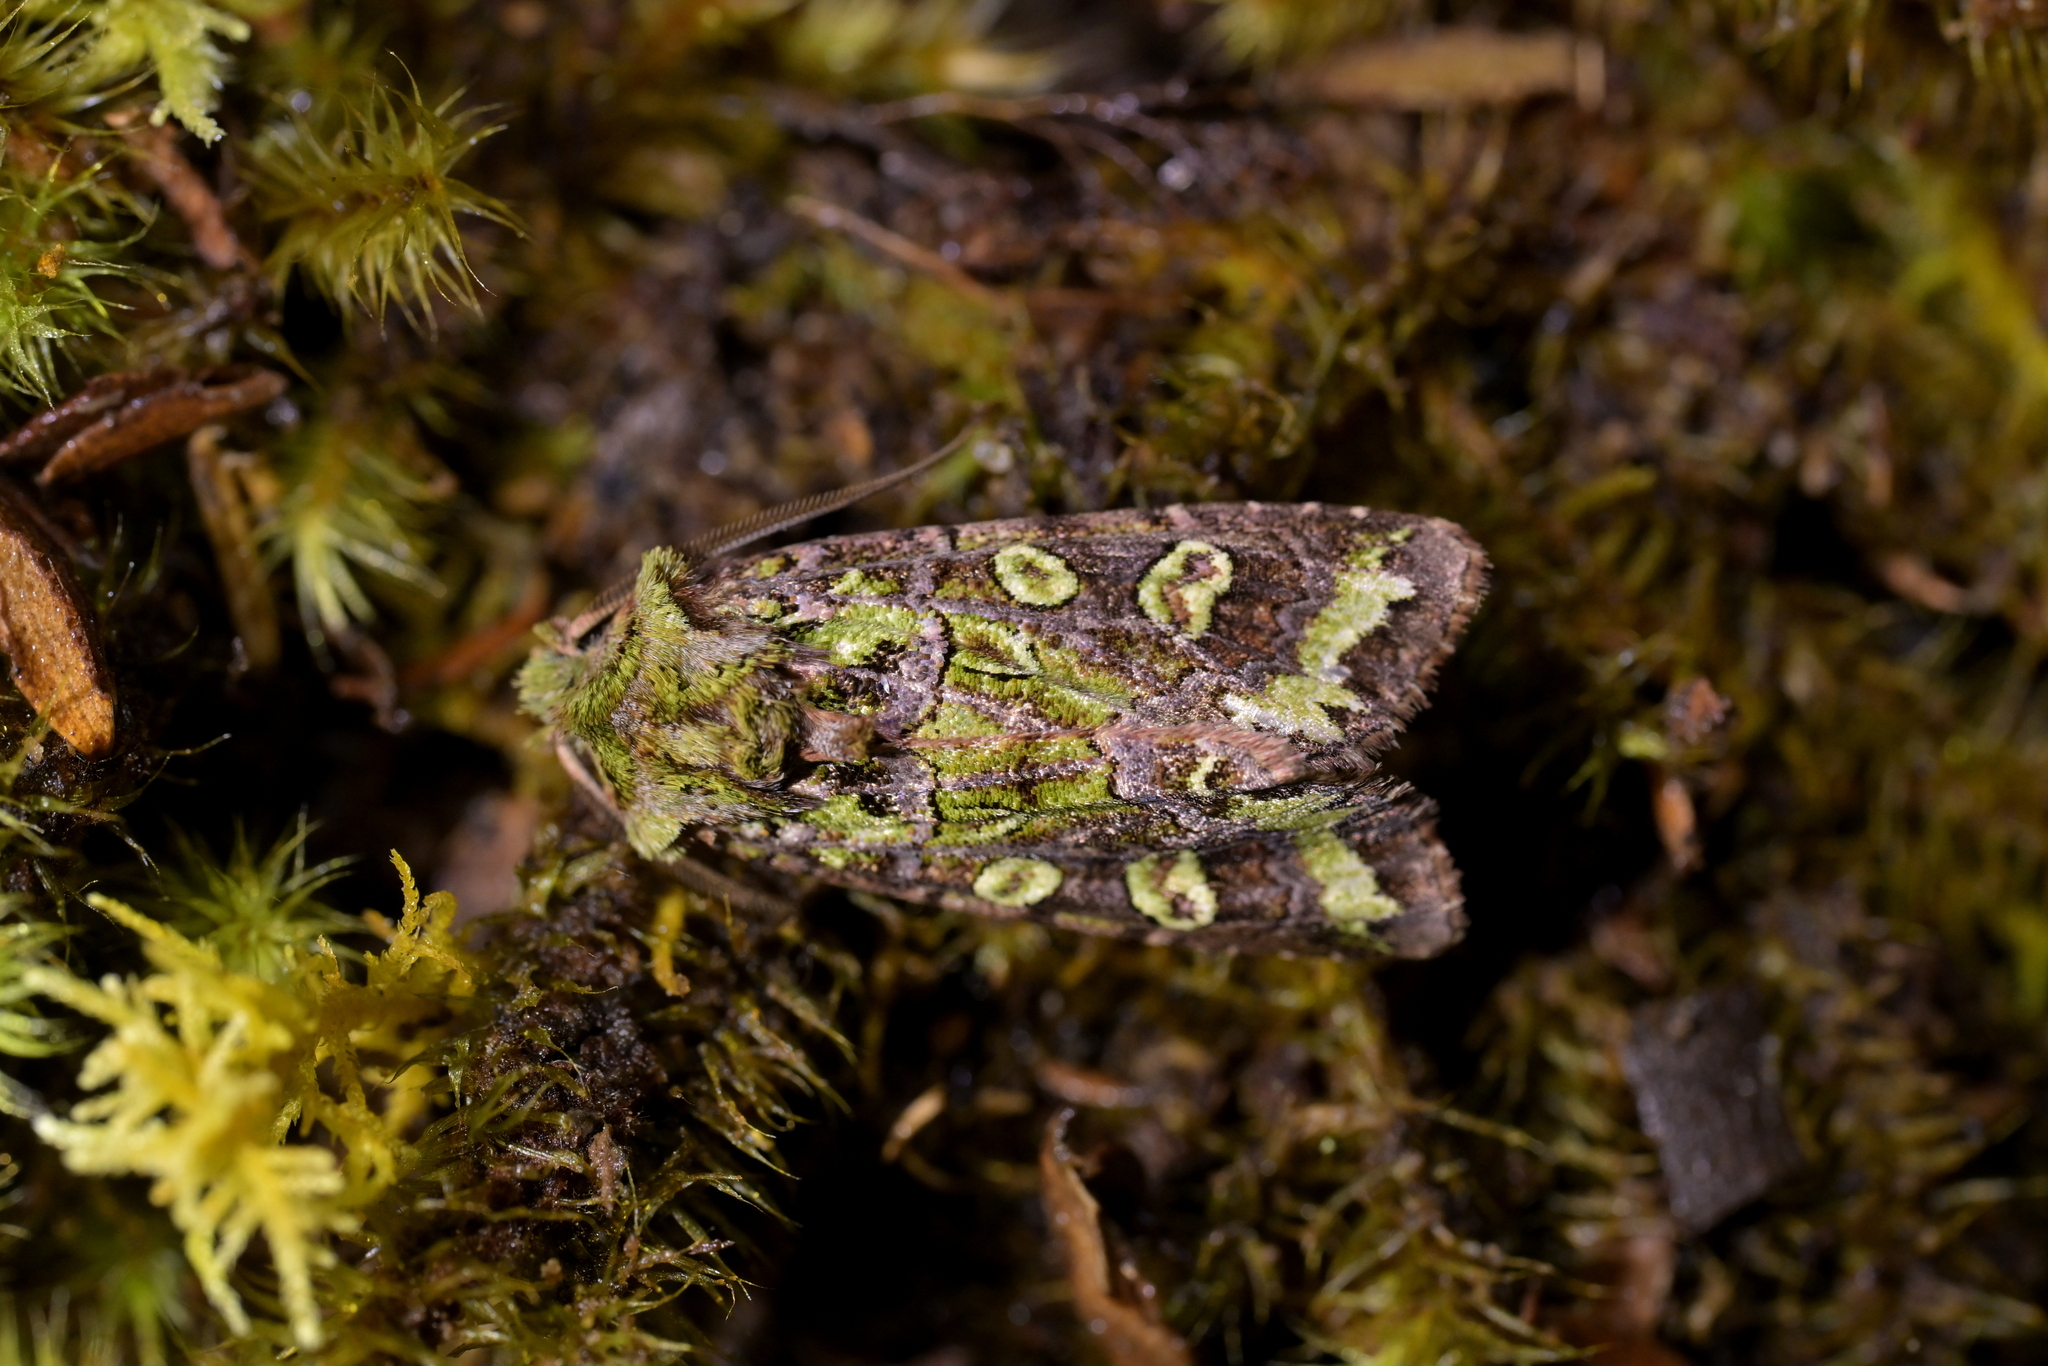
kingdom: Animalia
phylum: Arthropoda
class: Insecta
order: Lepidoptera
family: Noctuidae
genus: Ichneutica
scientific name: Ichneutica chlorodonta
